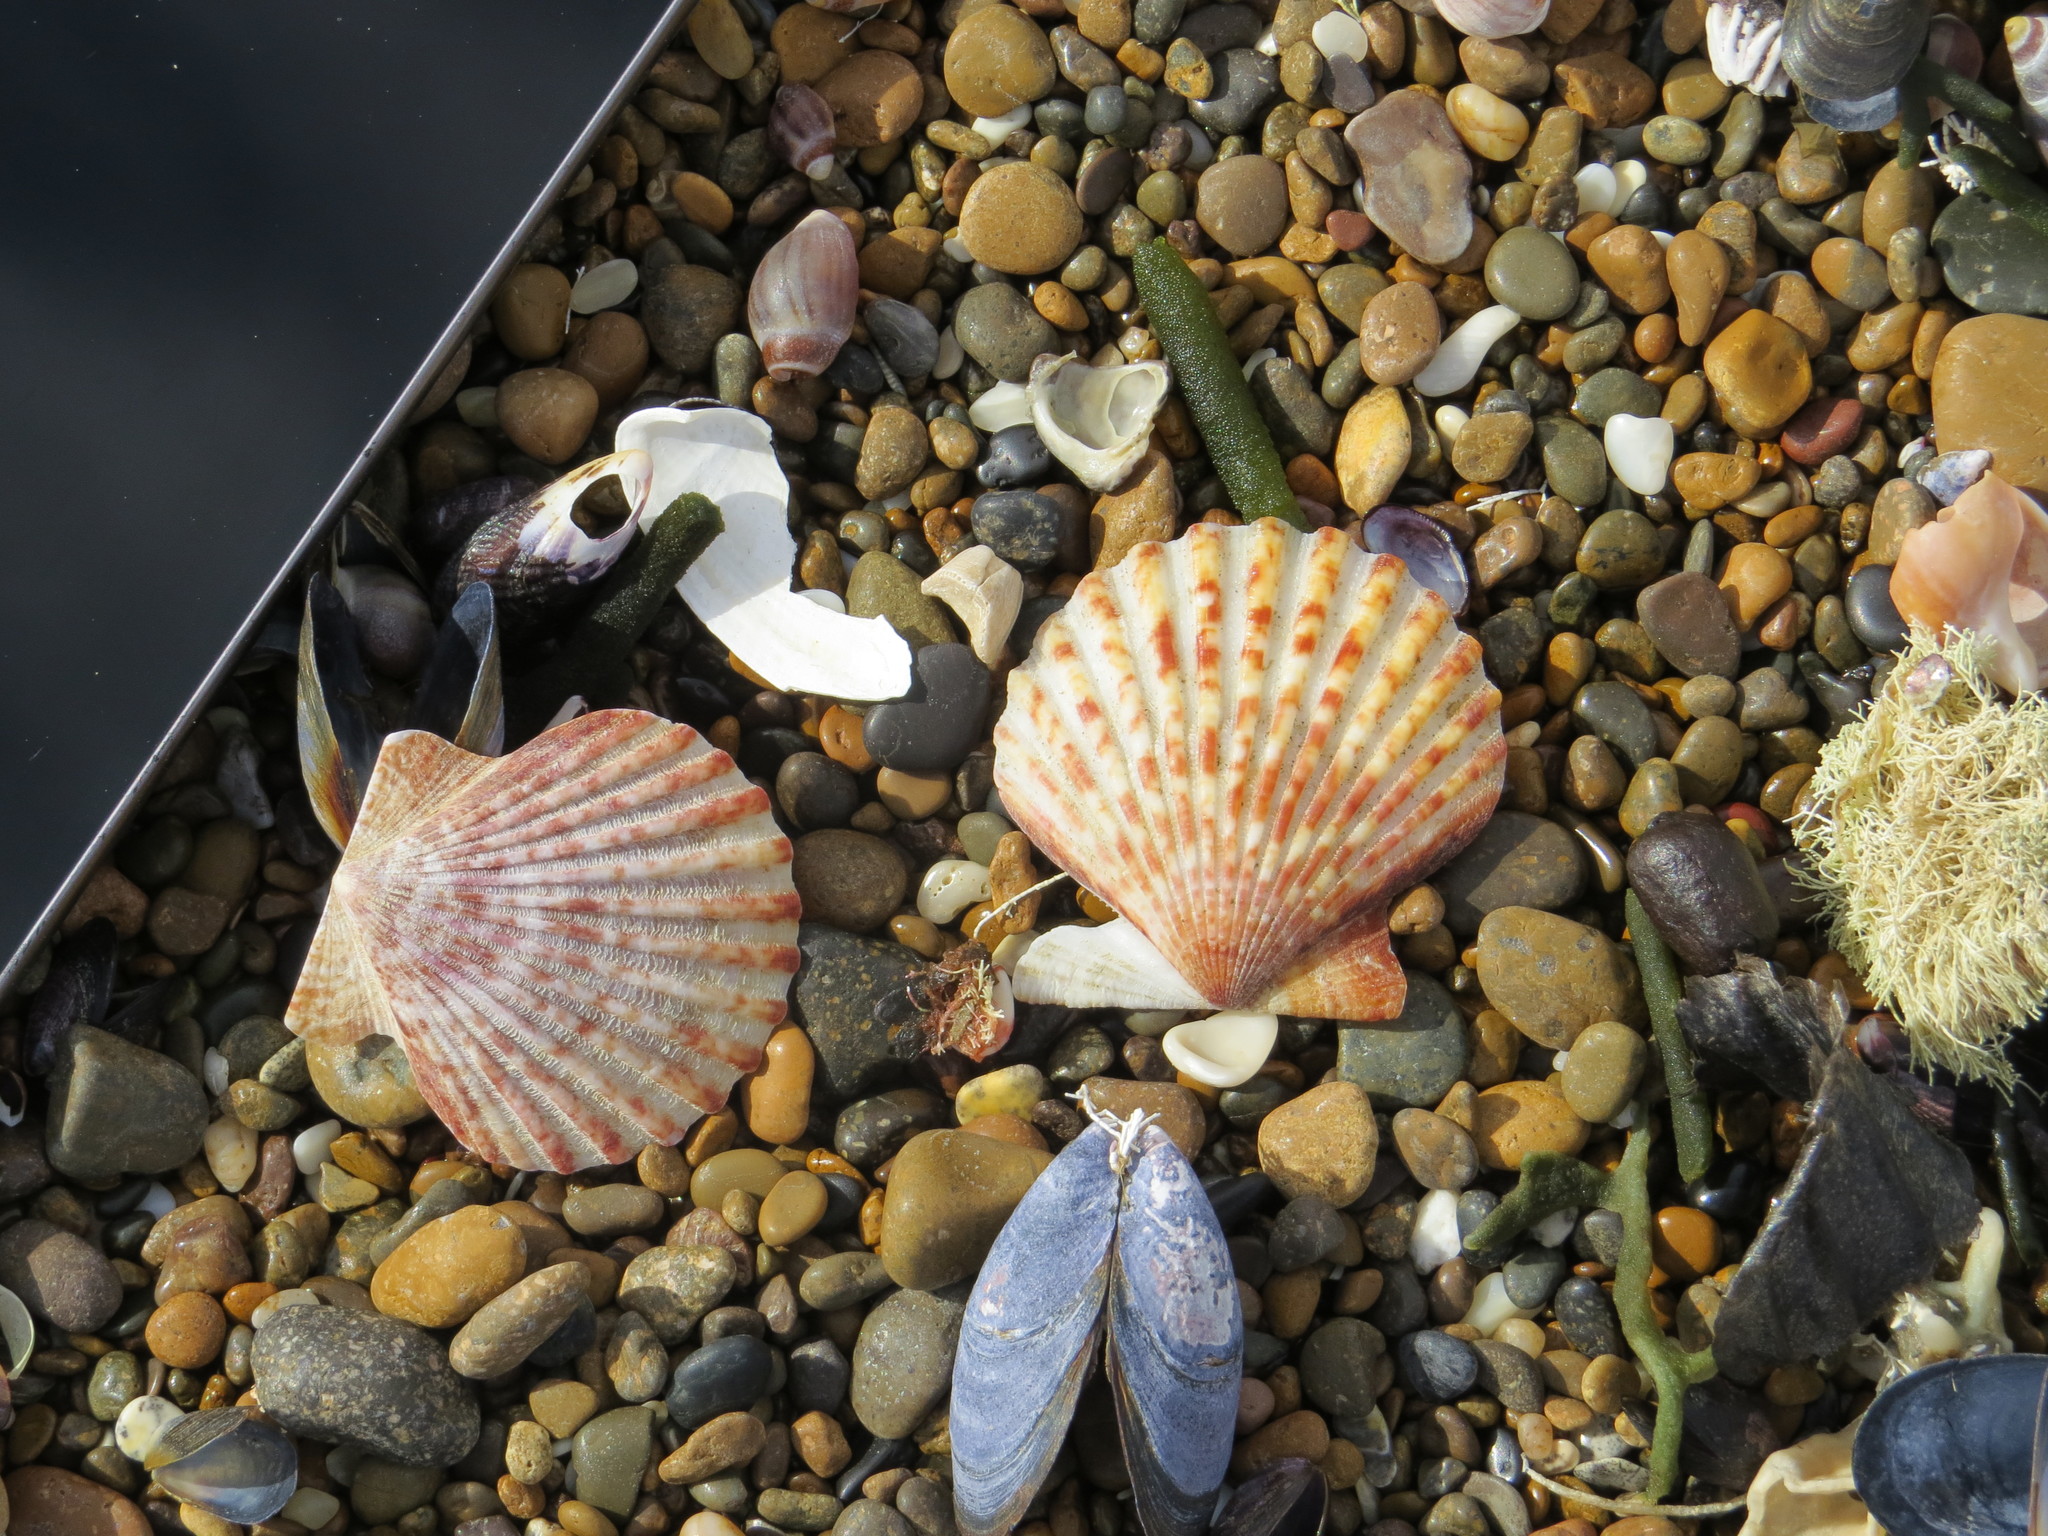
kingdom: Animalia
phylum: Mollusca
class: Bivalvia
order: Pectinida
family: Pectinidae
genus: Aequipecten
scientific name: Aequipecten tehuelchus
